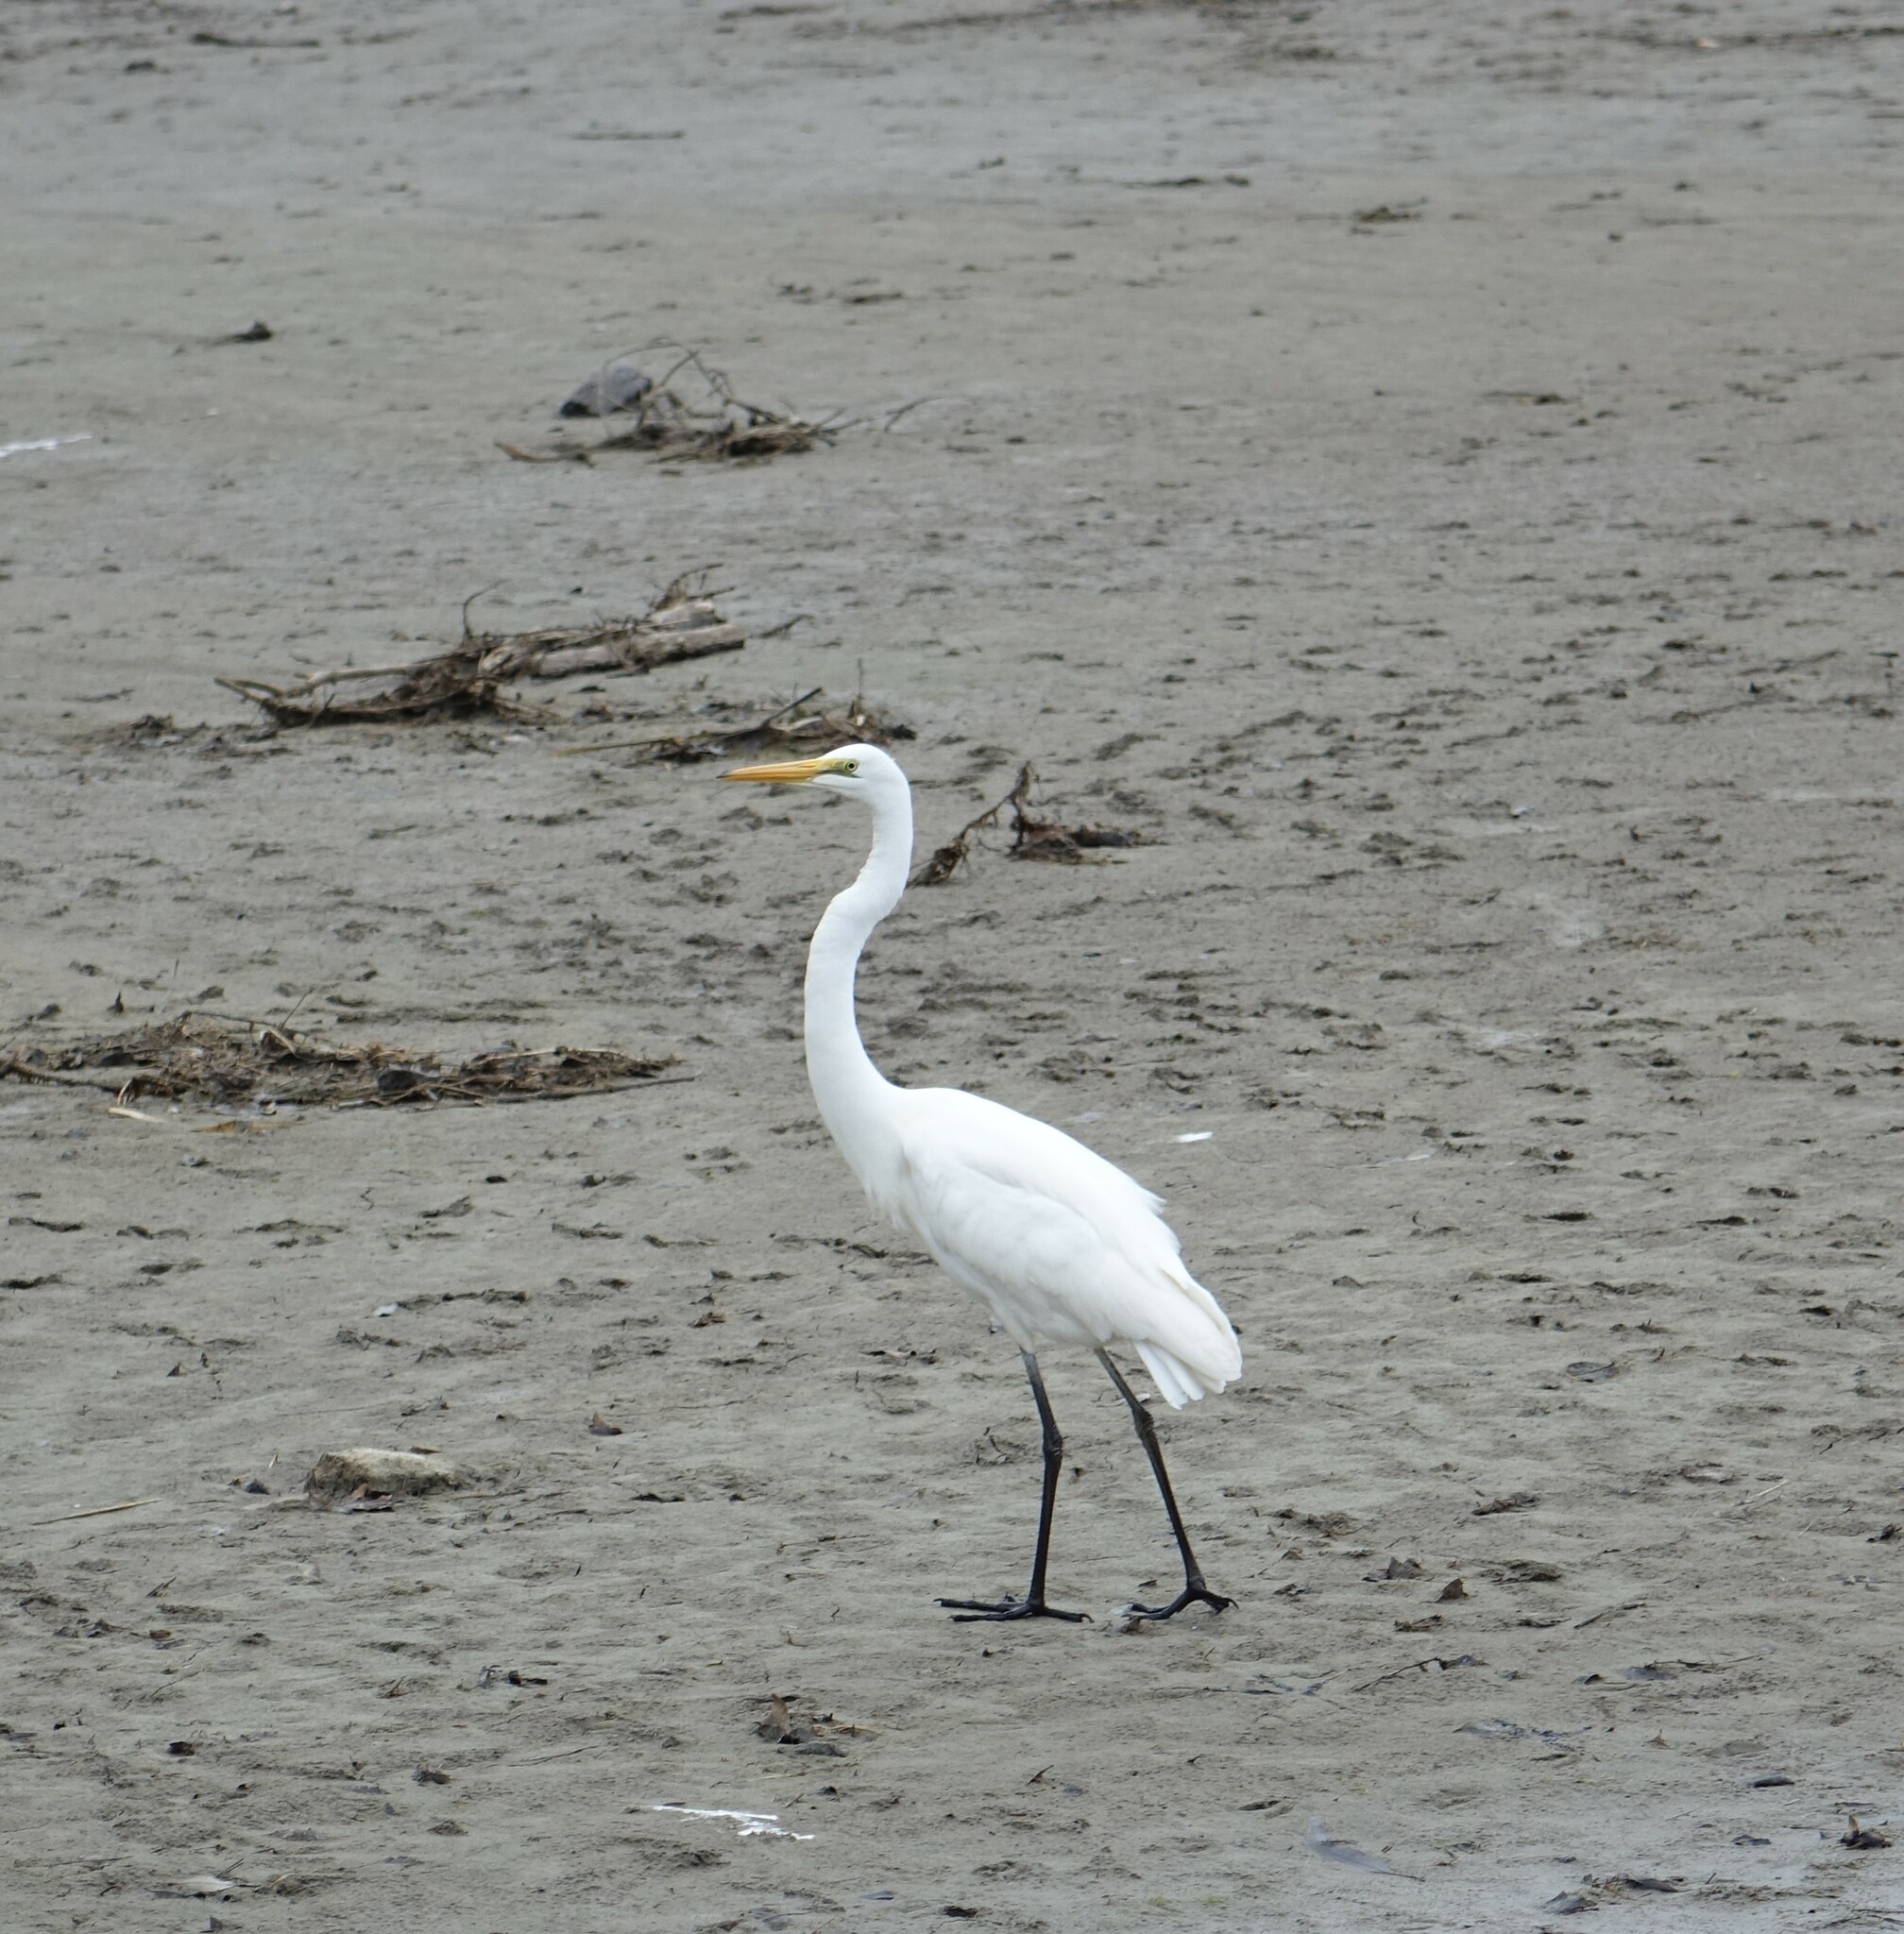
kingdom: Animalia
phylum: Chordata
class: Aves
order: Pelecaniformes
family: Ardeidae
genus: Ardea
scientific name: Ardea modesta
